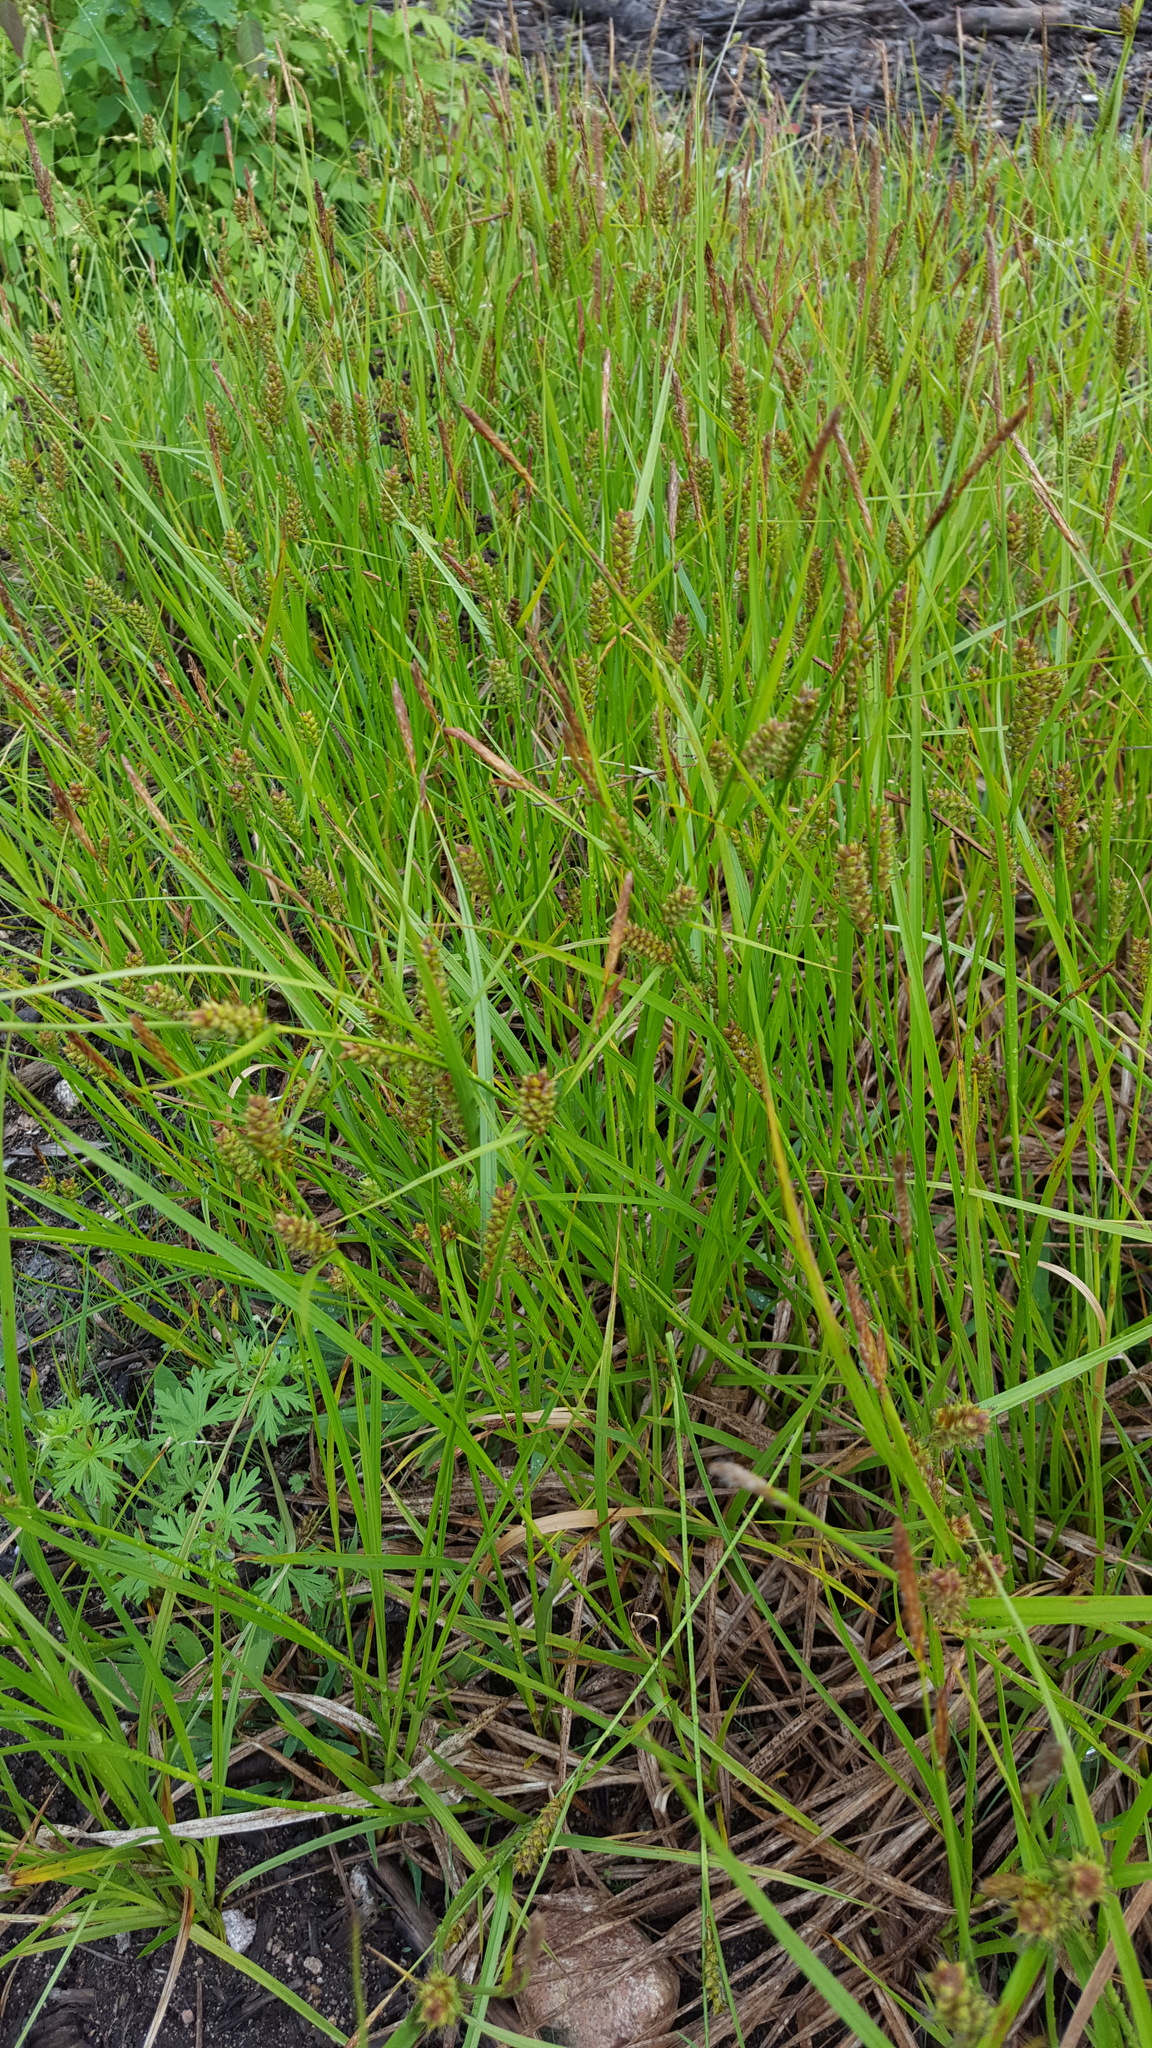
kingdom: Plantae
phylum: Tracheophyta
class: Liliopsida
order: Poales
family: Cyperaceae
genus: Carex
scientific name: Carex houghtoniana
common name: Houghton's sedge
